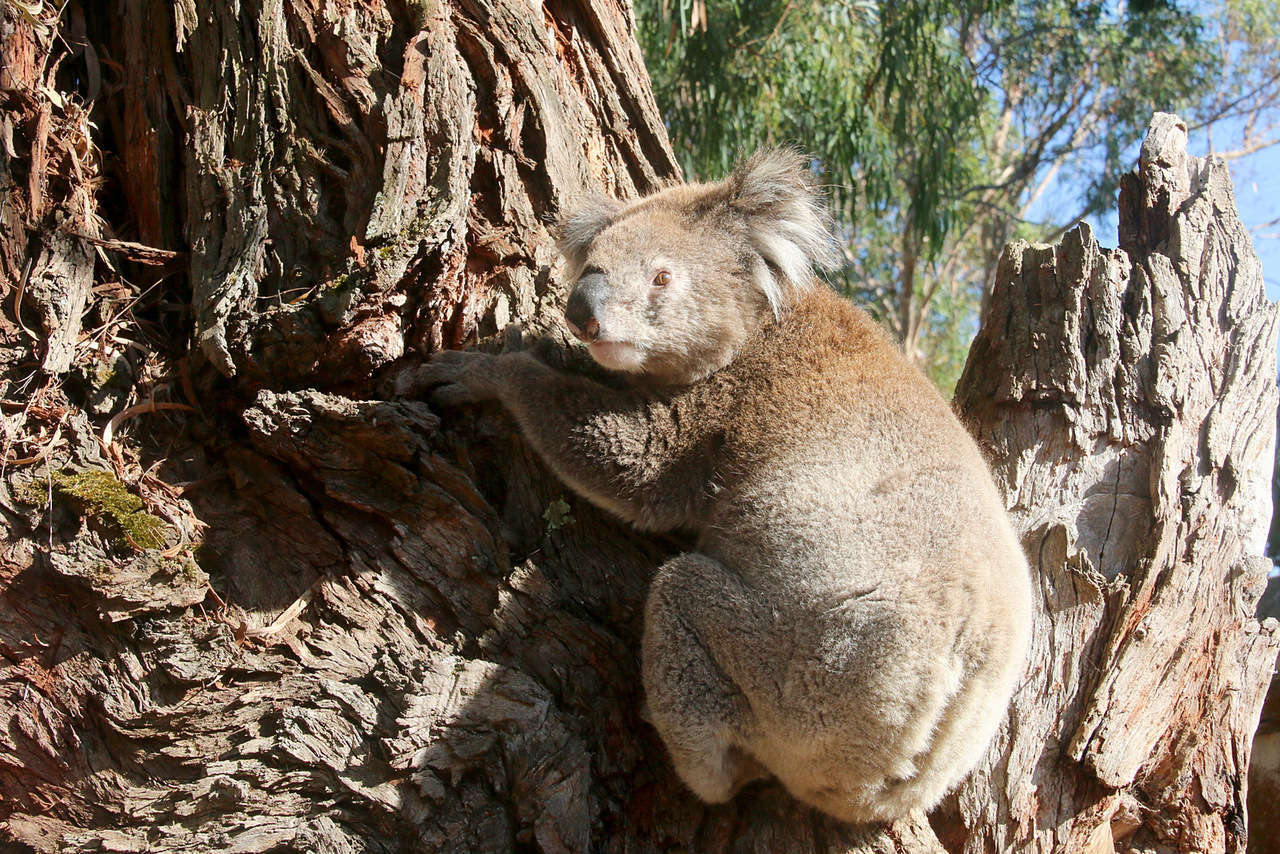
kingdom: Animalia
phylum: Chordata
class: Mammalia
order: Diprotodontia
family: Phascolarctidae
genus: Phascolarctos
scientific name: Phascolarctos cinereus
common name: Koala
